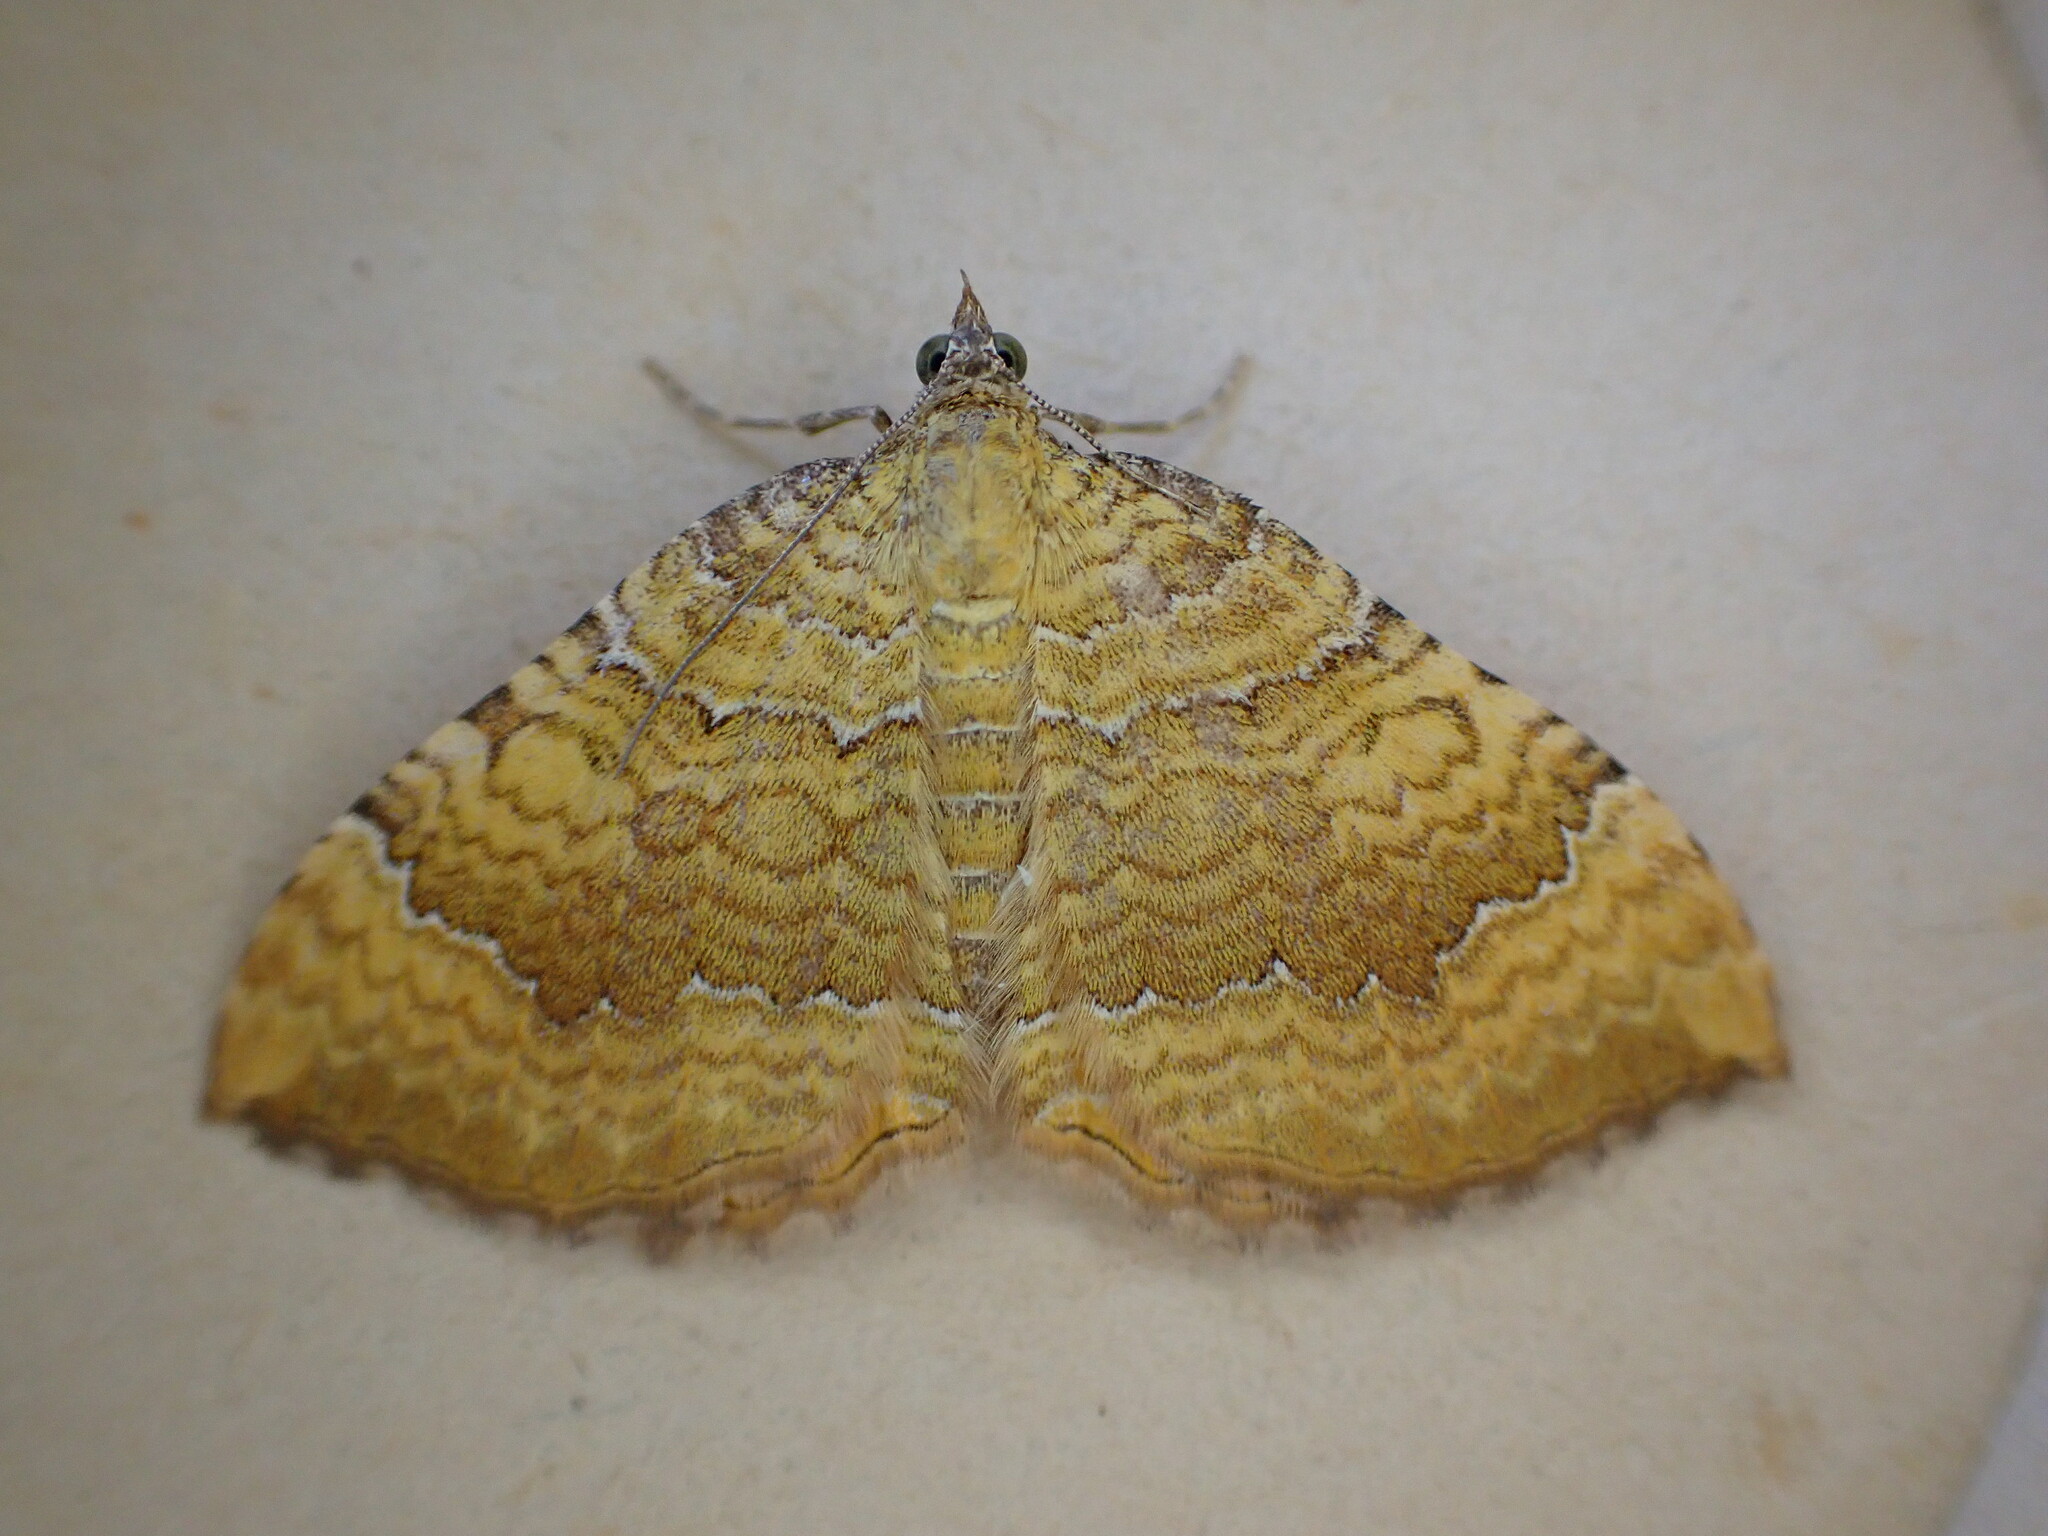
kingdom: Animalia
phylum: Arthropoda
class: Insecta
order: Lepidoptera
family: Geometridae
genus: Camptogramma
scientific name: Camptogramma bilineata
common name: Yellow shell
